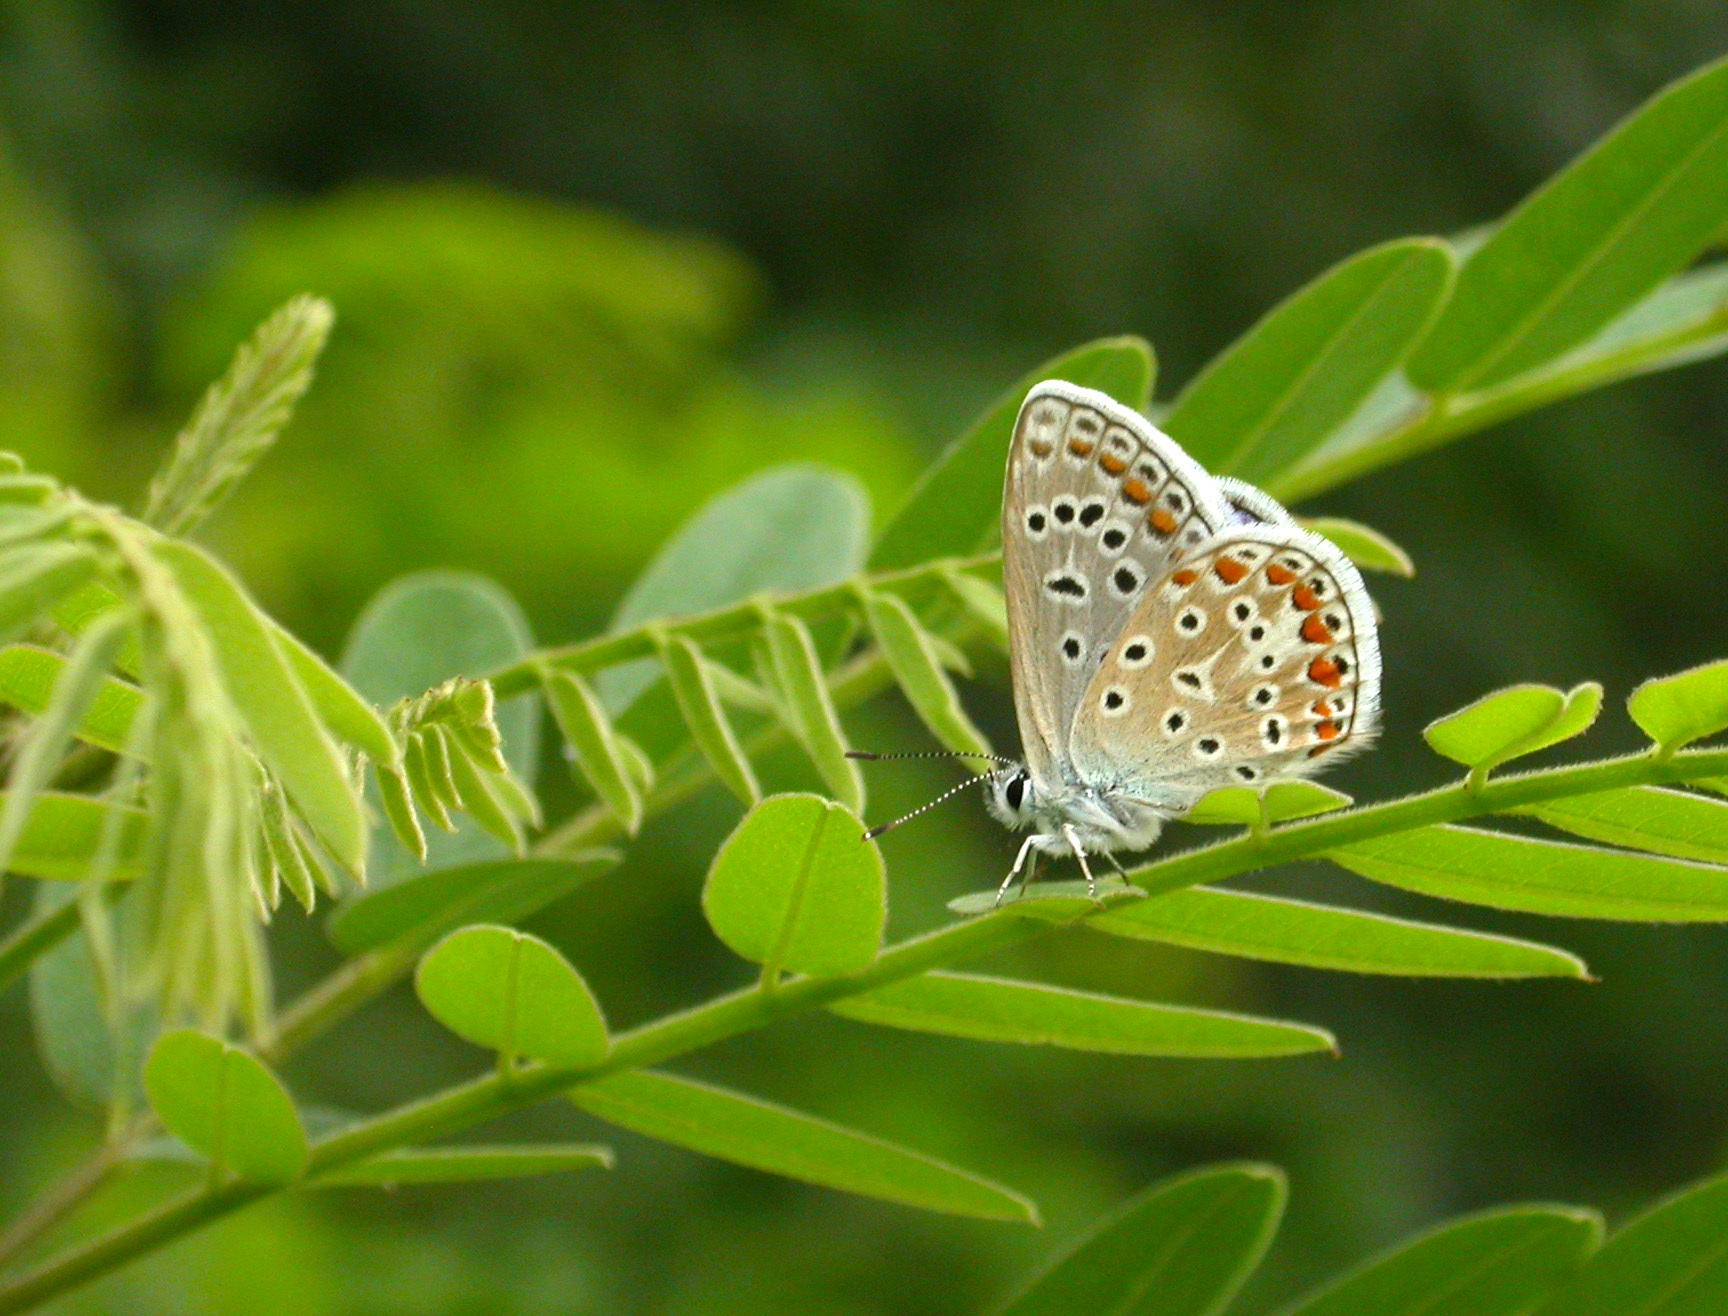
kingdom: Animalia
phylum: Arthropoda
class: Insecta
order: Lepidoptera
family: Lycaenidae
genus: Polyommatus
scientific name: Polyommatus icarus
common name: Common blue
